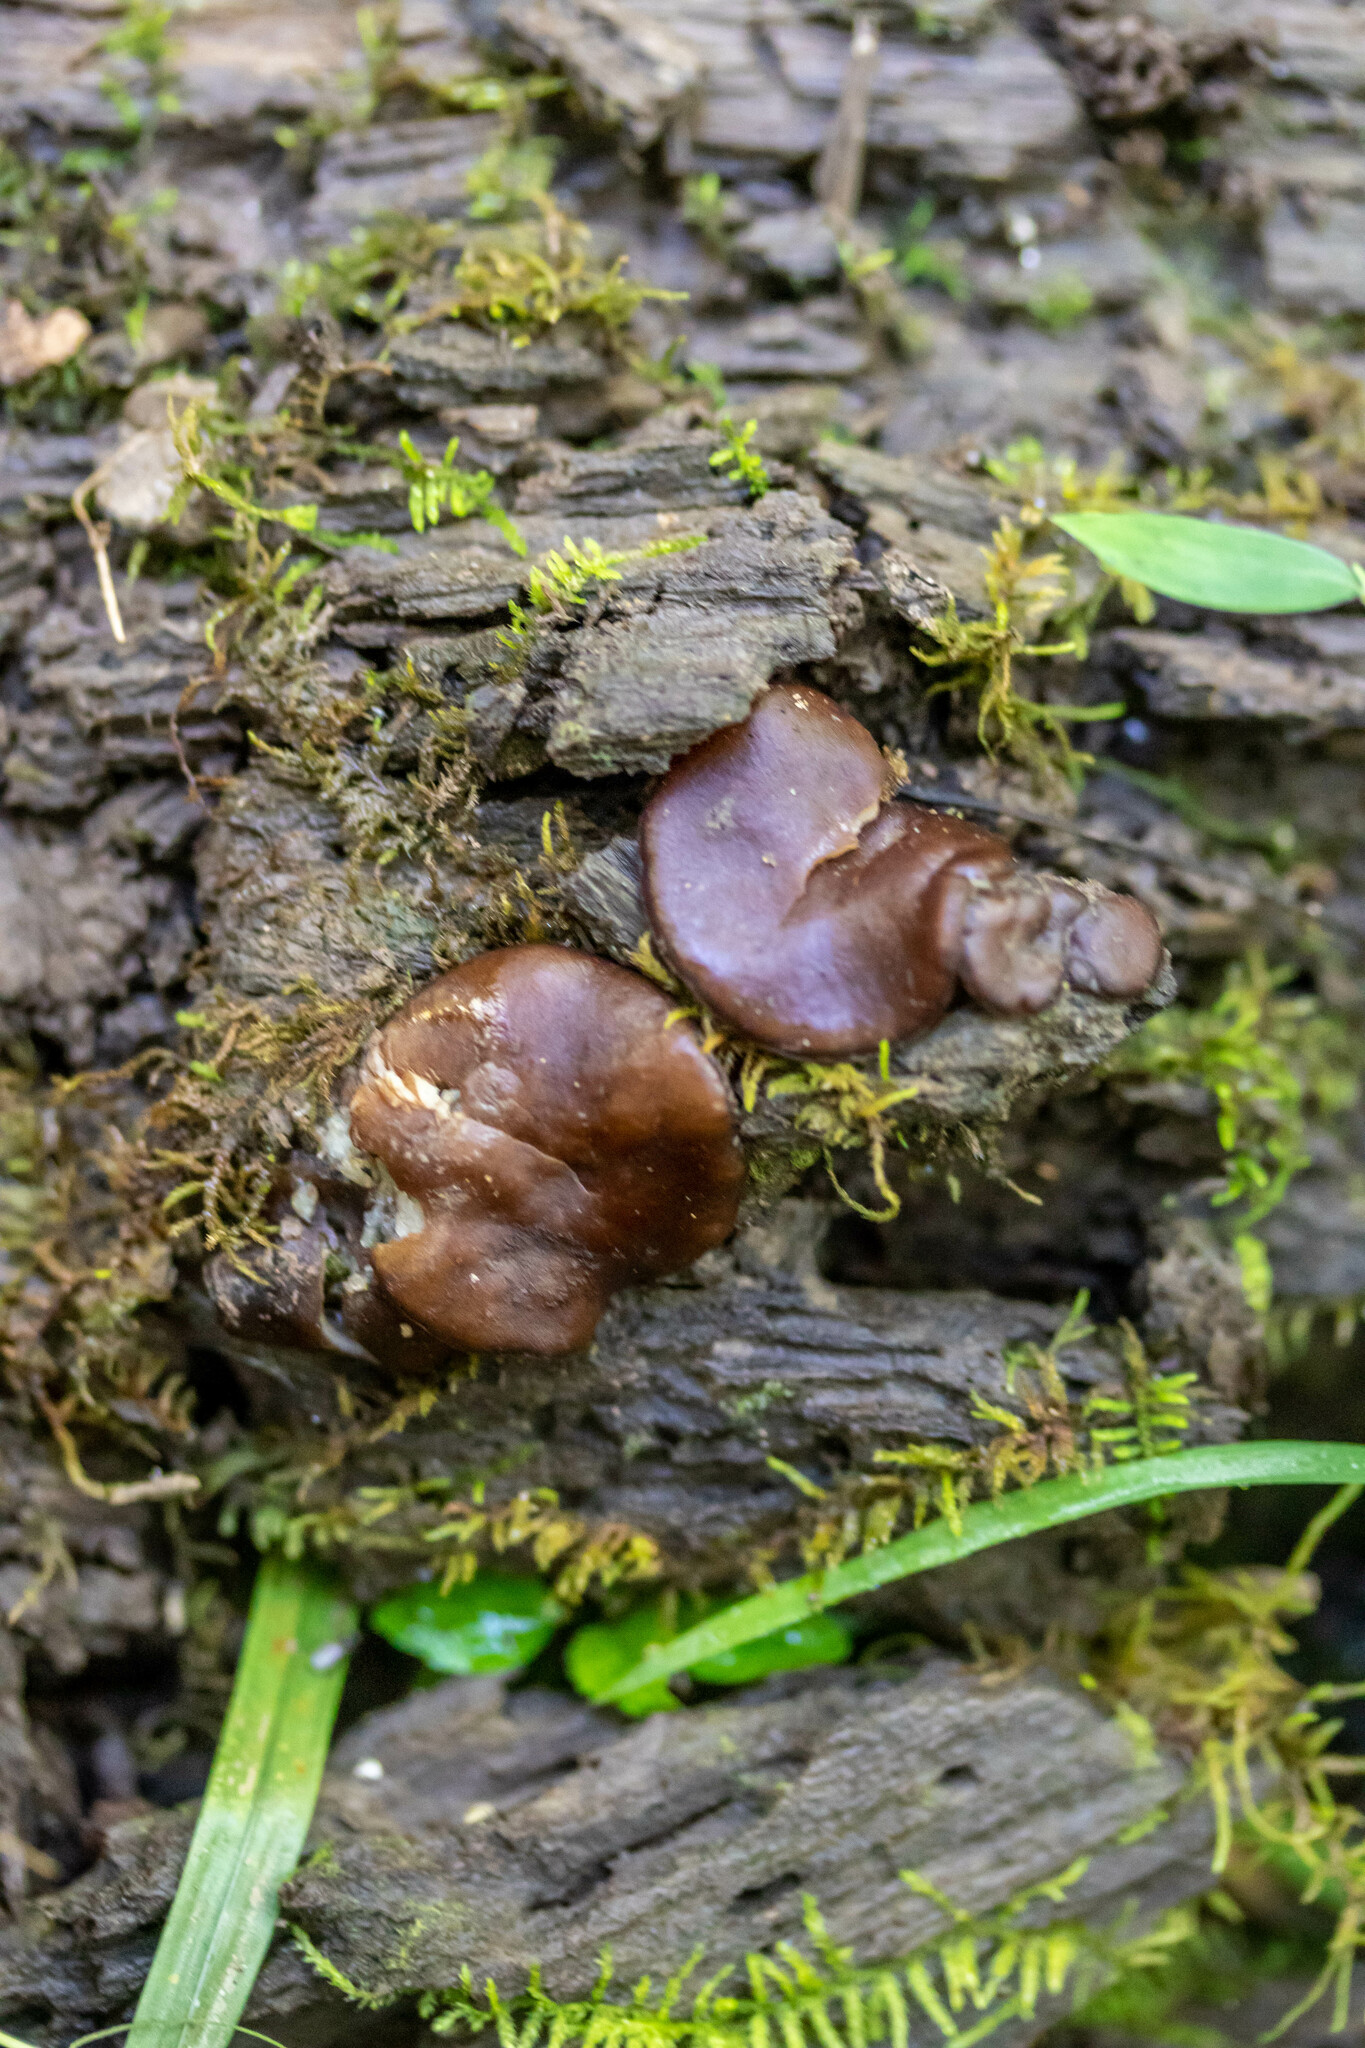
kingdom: Fungi
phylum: Ascomycota
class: Pezizomycetes
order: Pezizales
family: Pezizaceae
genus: Pachyella
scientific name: Pachyella clypeata
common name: Copper penny fungus
